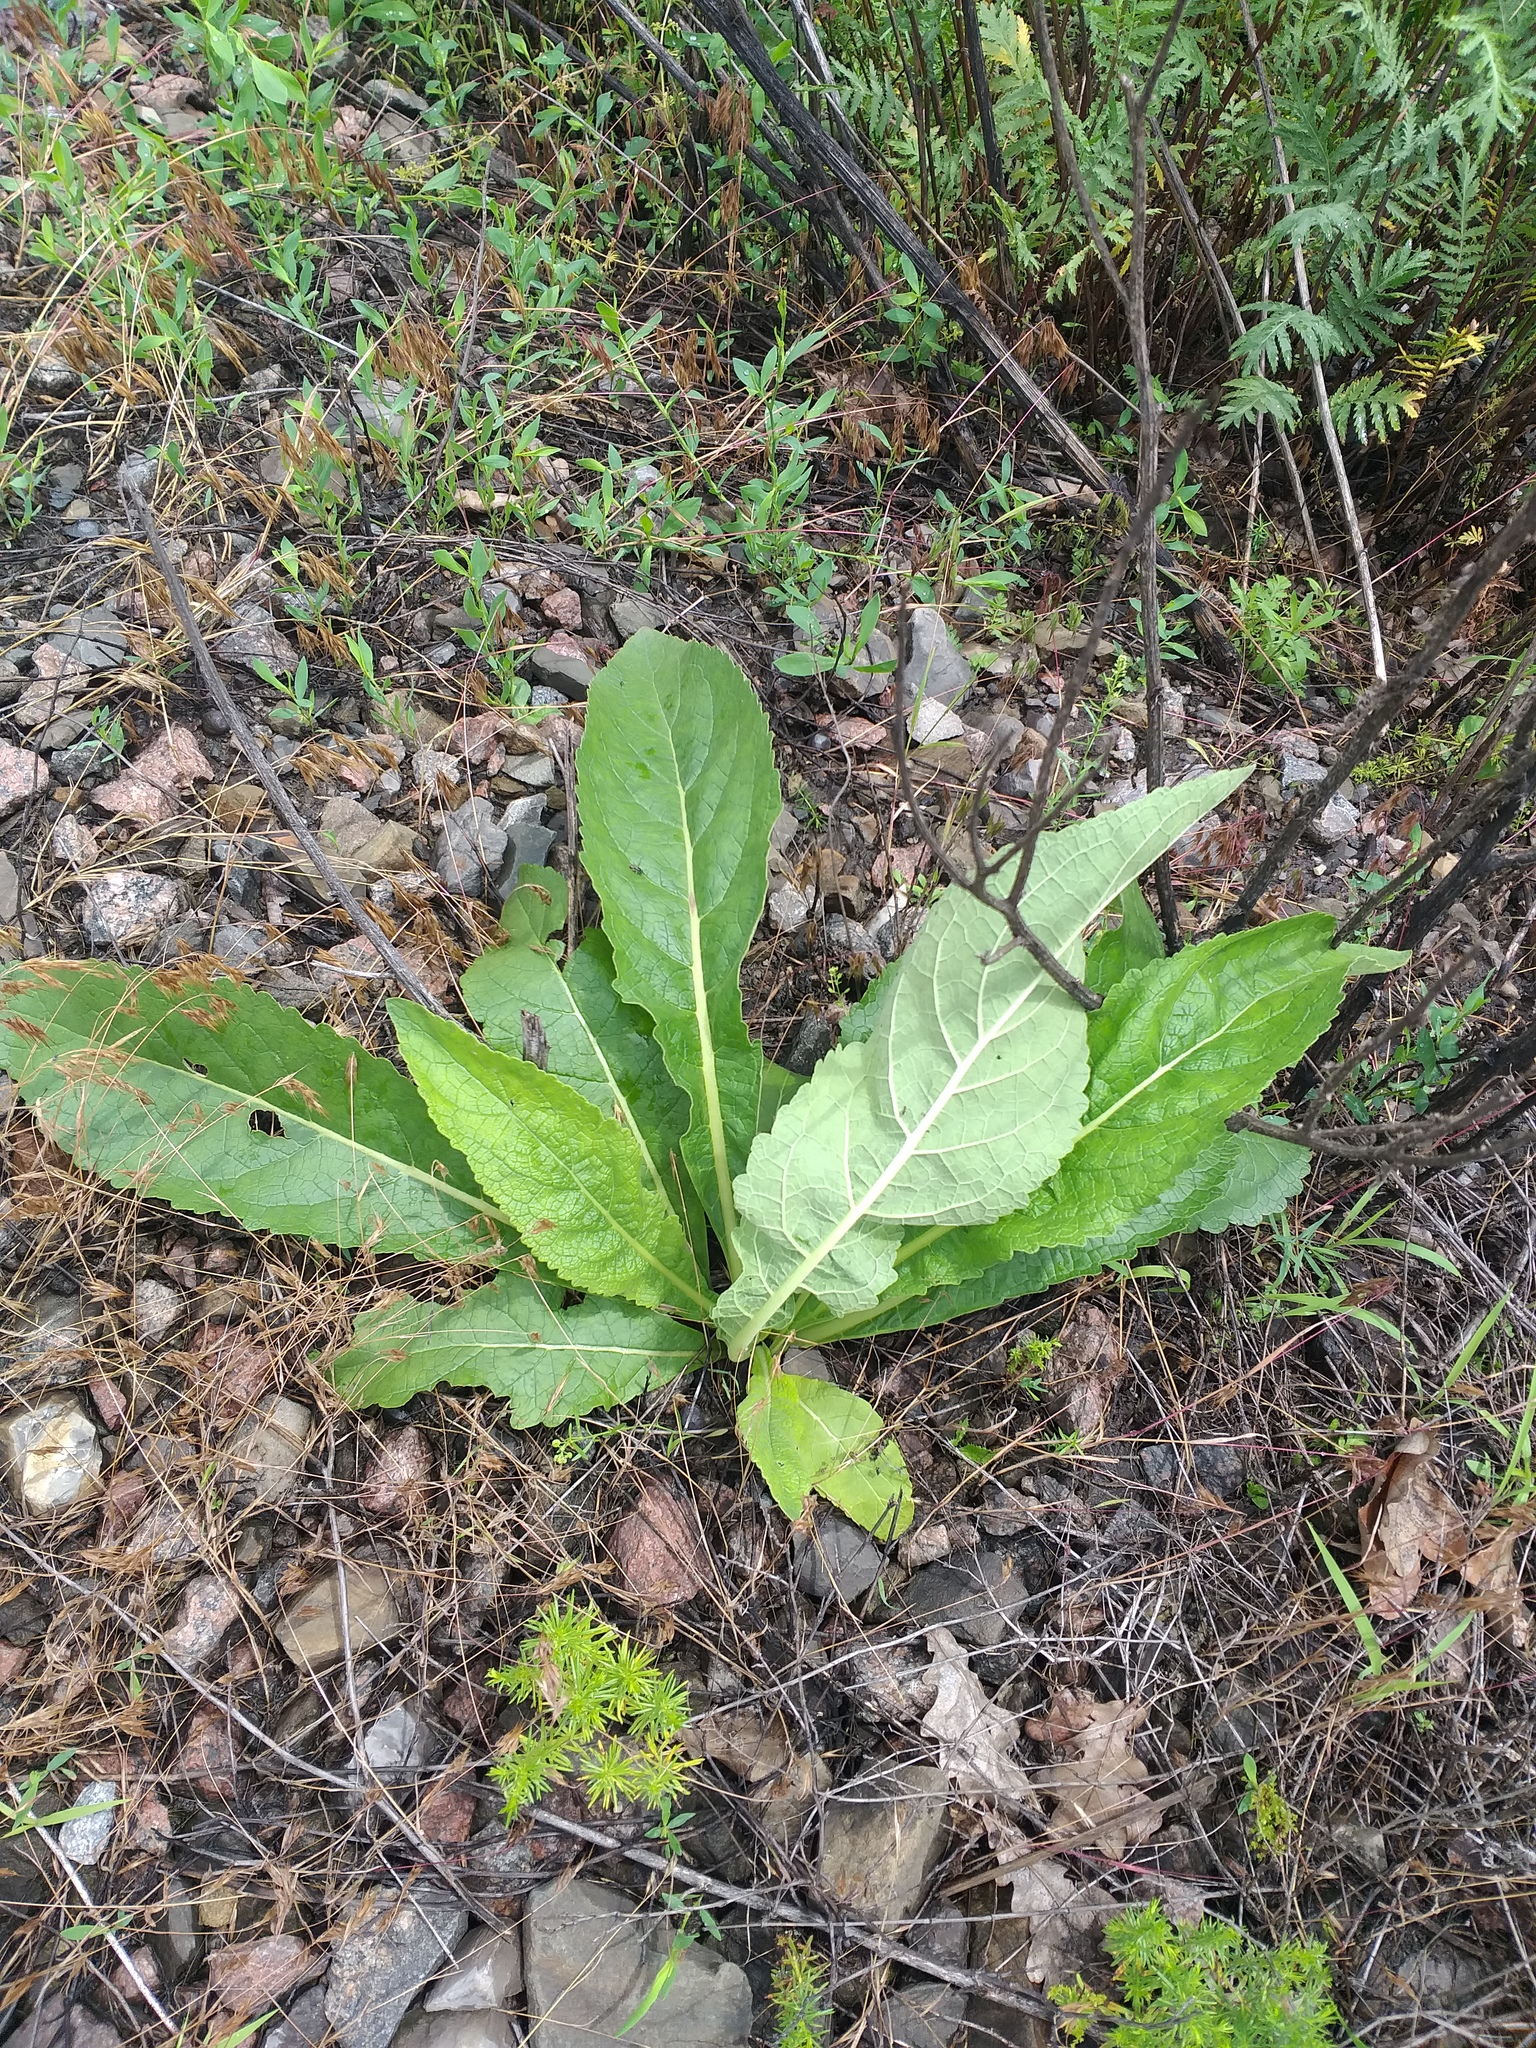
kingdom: Plantae
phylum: Tracheophyta
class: Magnoliopsida
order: Lamiales
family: Scrophulariaceae
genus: Verbascum
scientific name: Verbascum lychnitis
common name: White mullein
